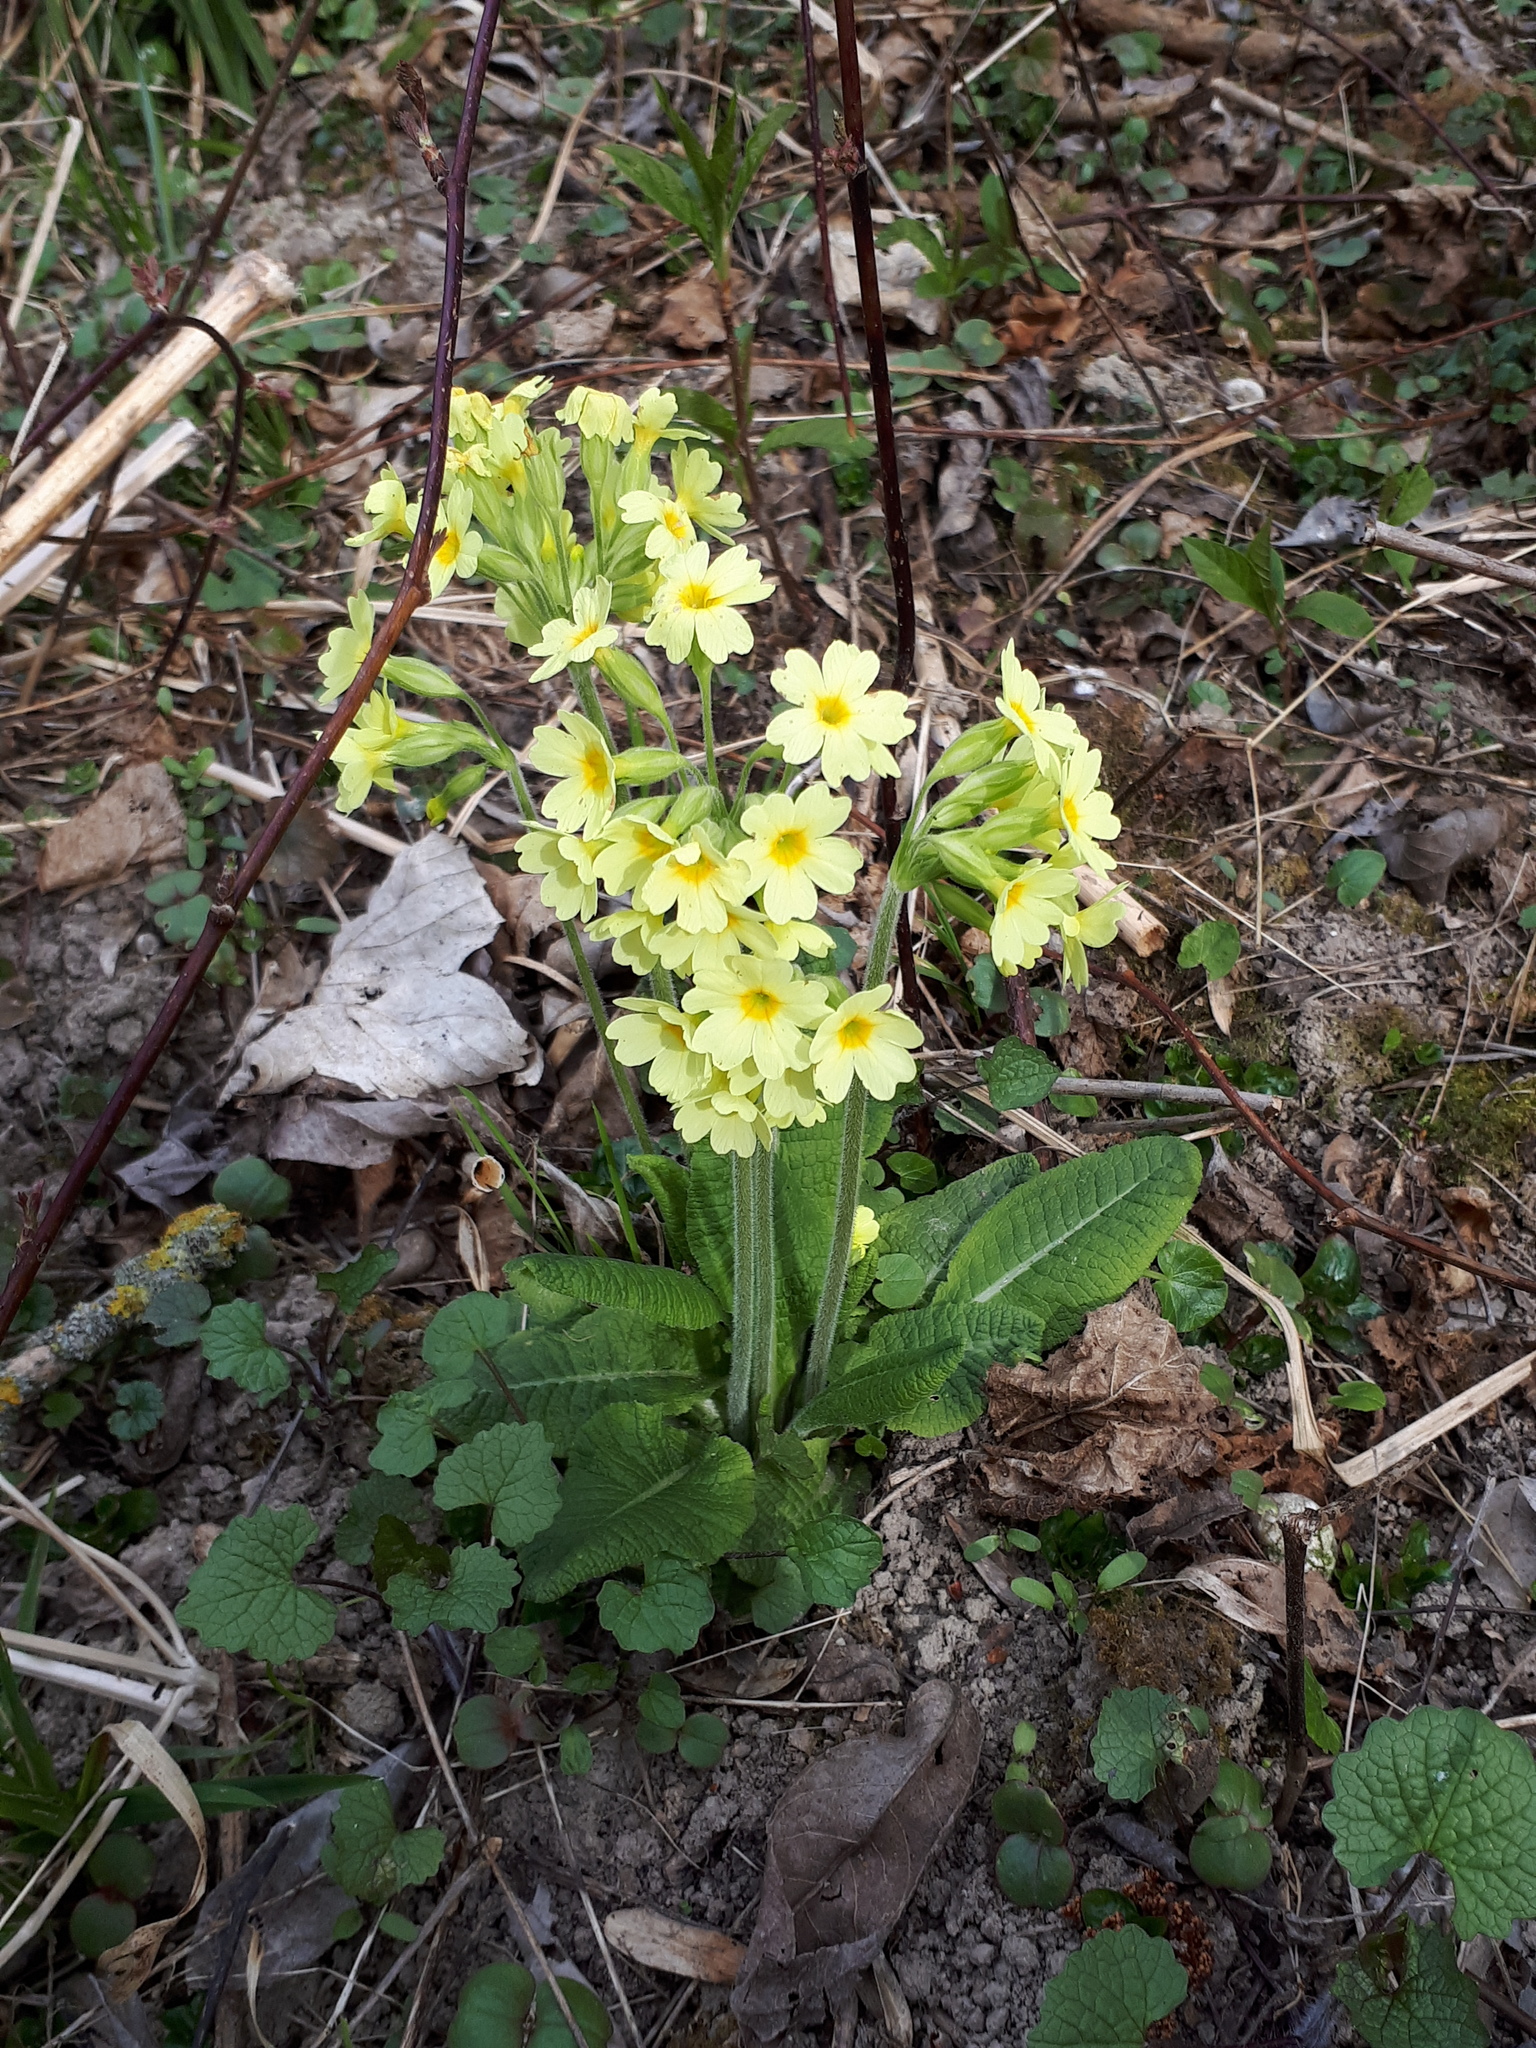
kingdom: Plantae
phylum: Tracheophyta
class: Magnoliopsida
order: Ericales
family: Primulaceae
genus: Primula
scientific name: Primula elatior
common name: Oxlip
